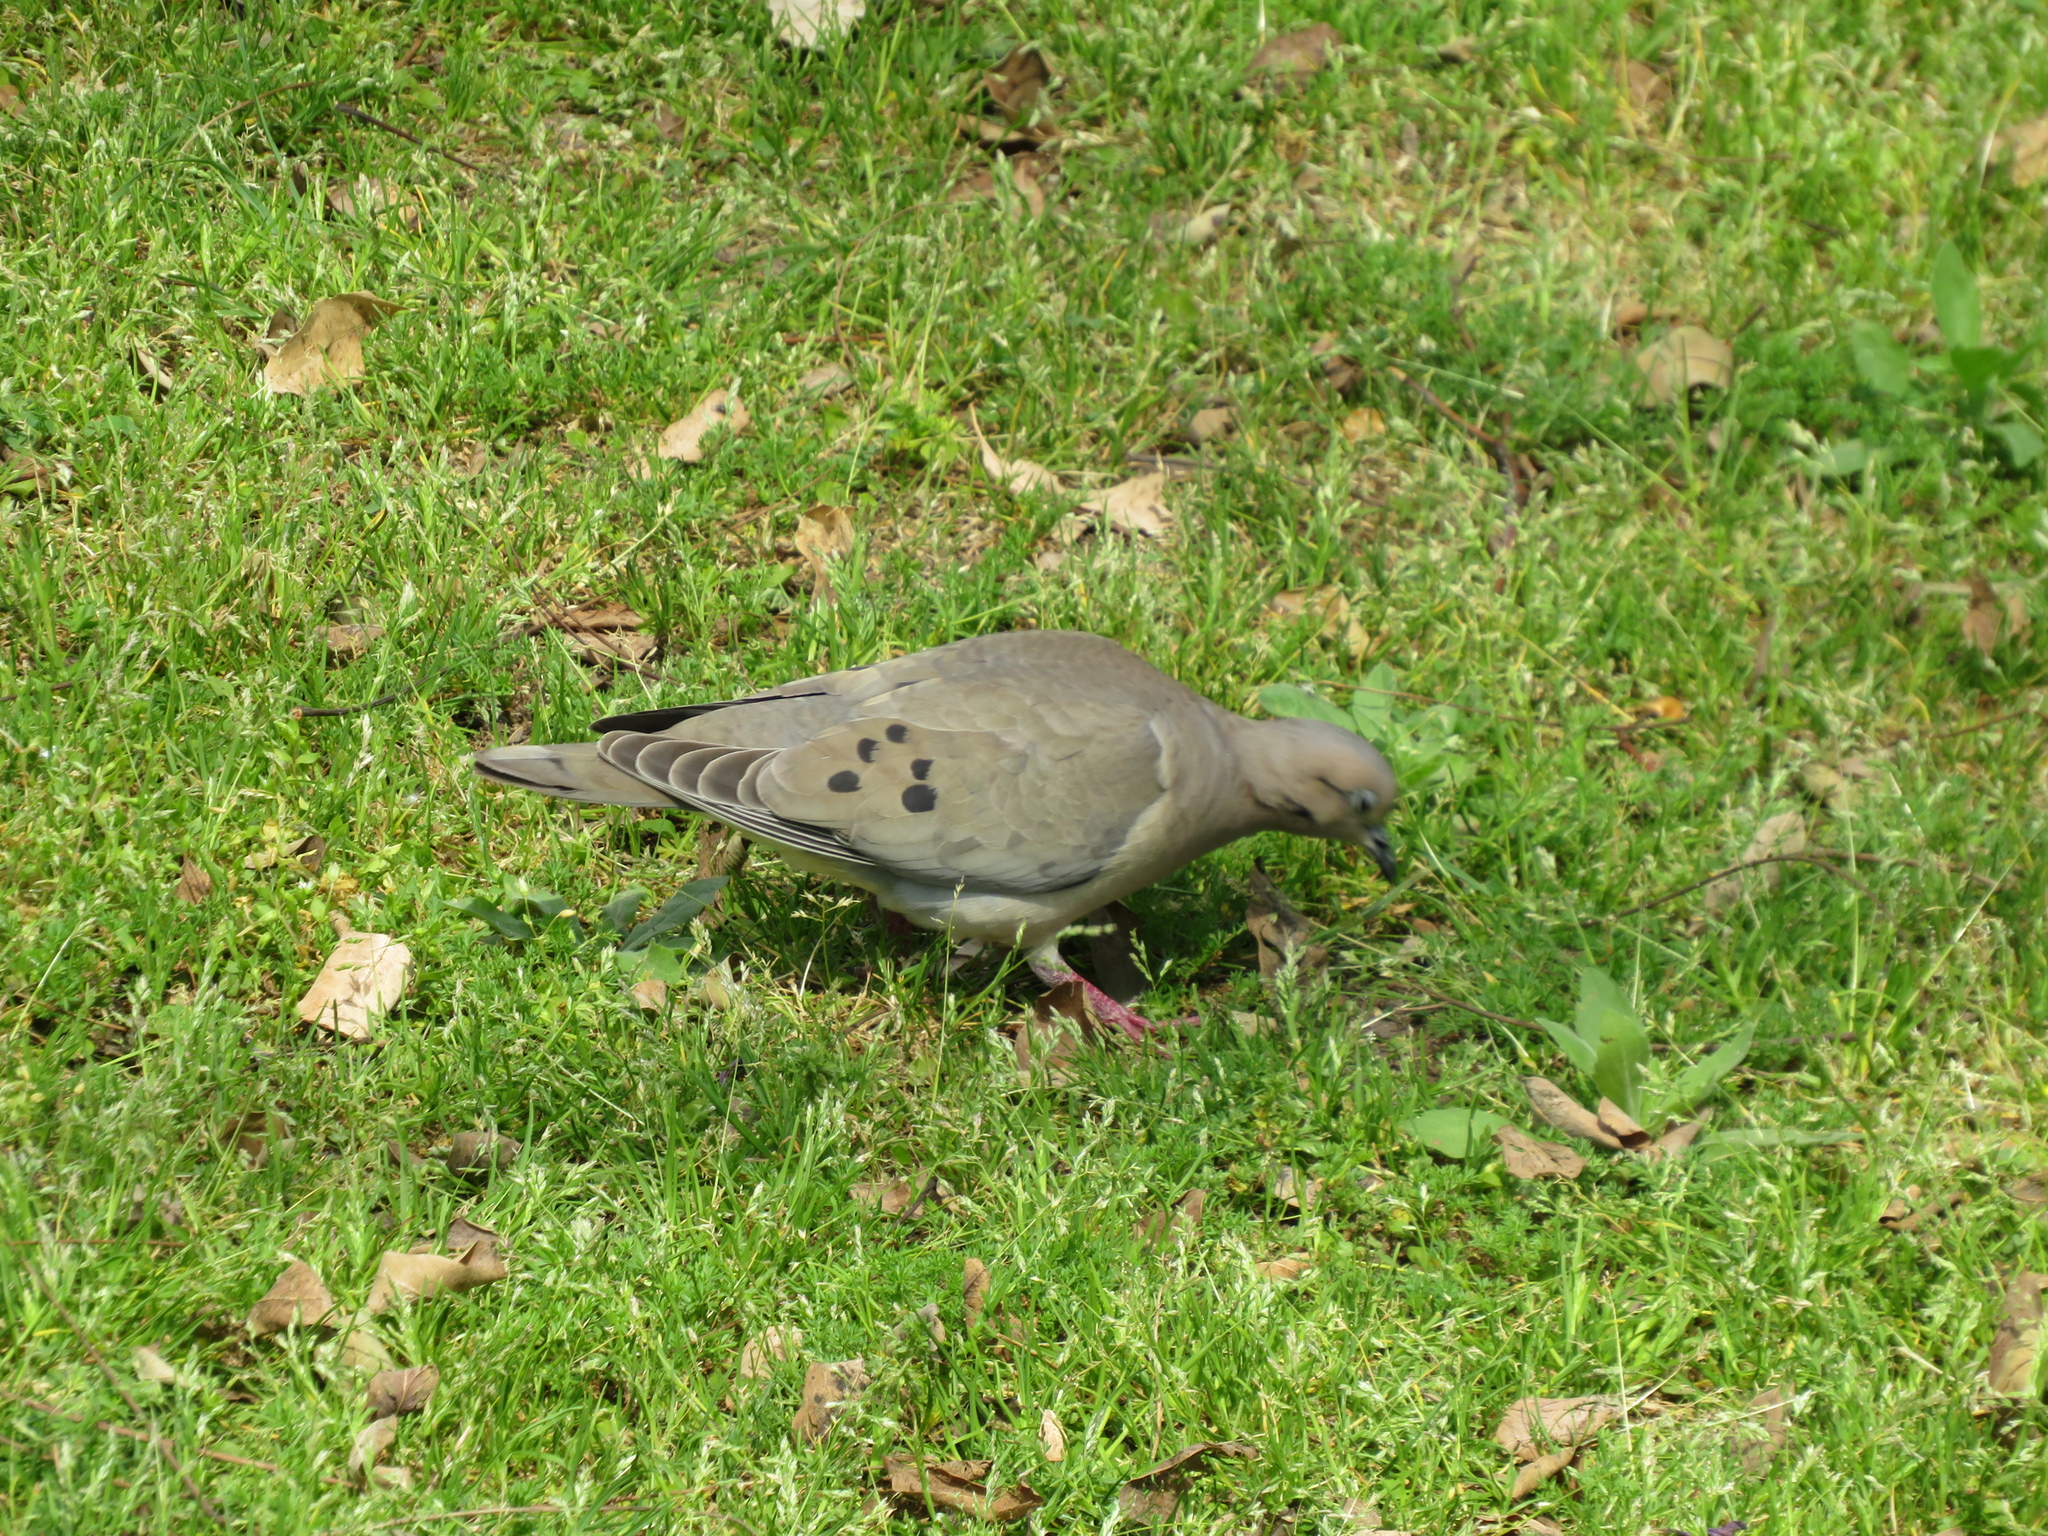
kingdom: Animalia
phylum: Chordata
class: Aves
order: Columbiformes
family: Columbidae
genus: Zenaida
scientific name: Zenaida auriculata
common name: Eared dove
